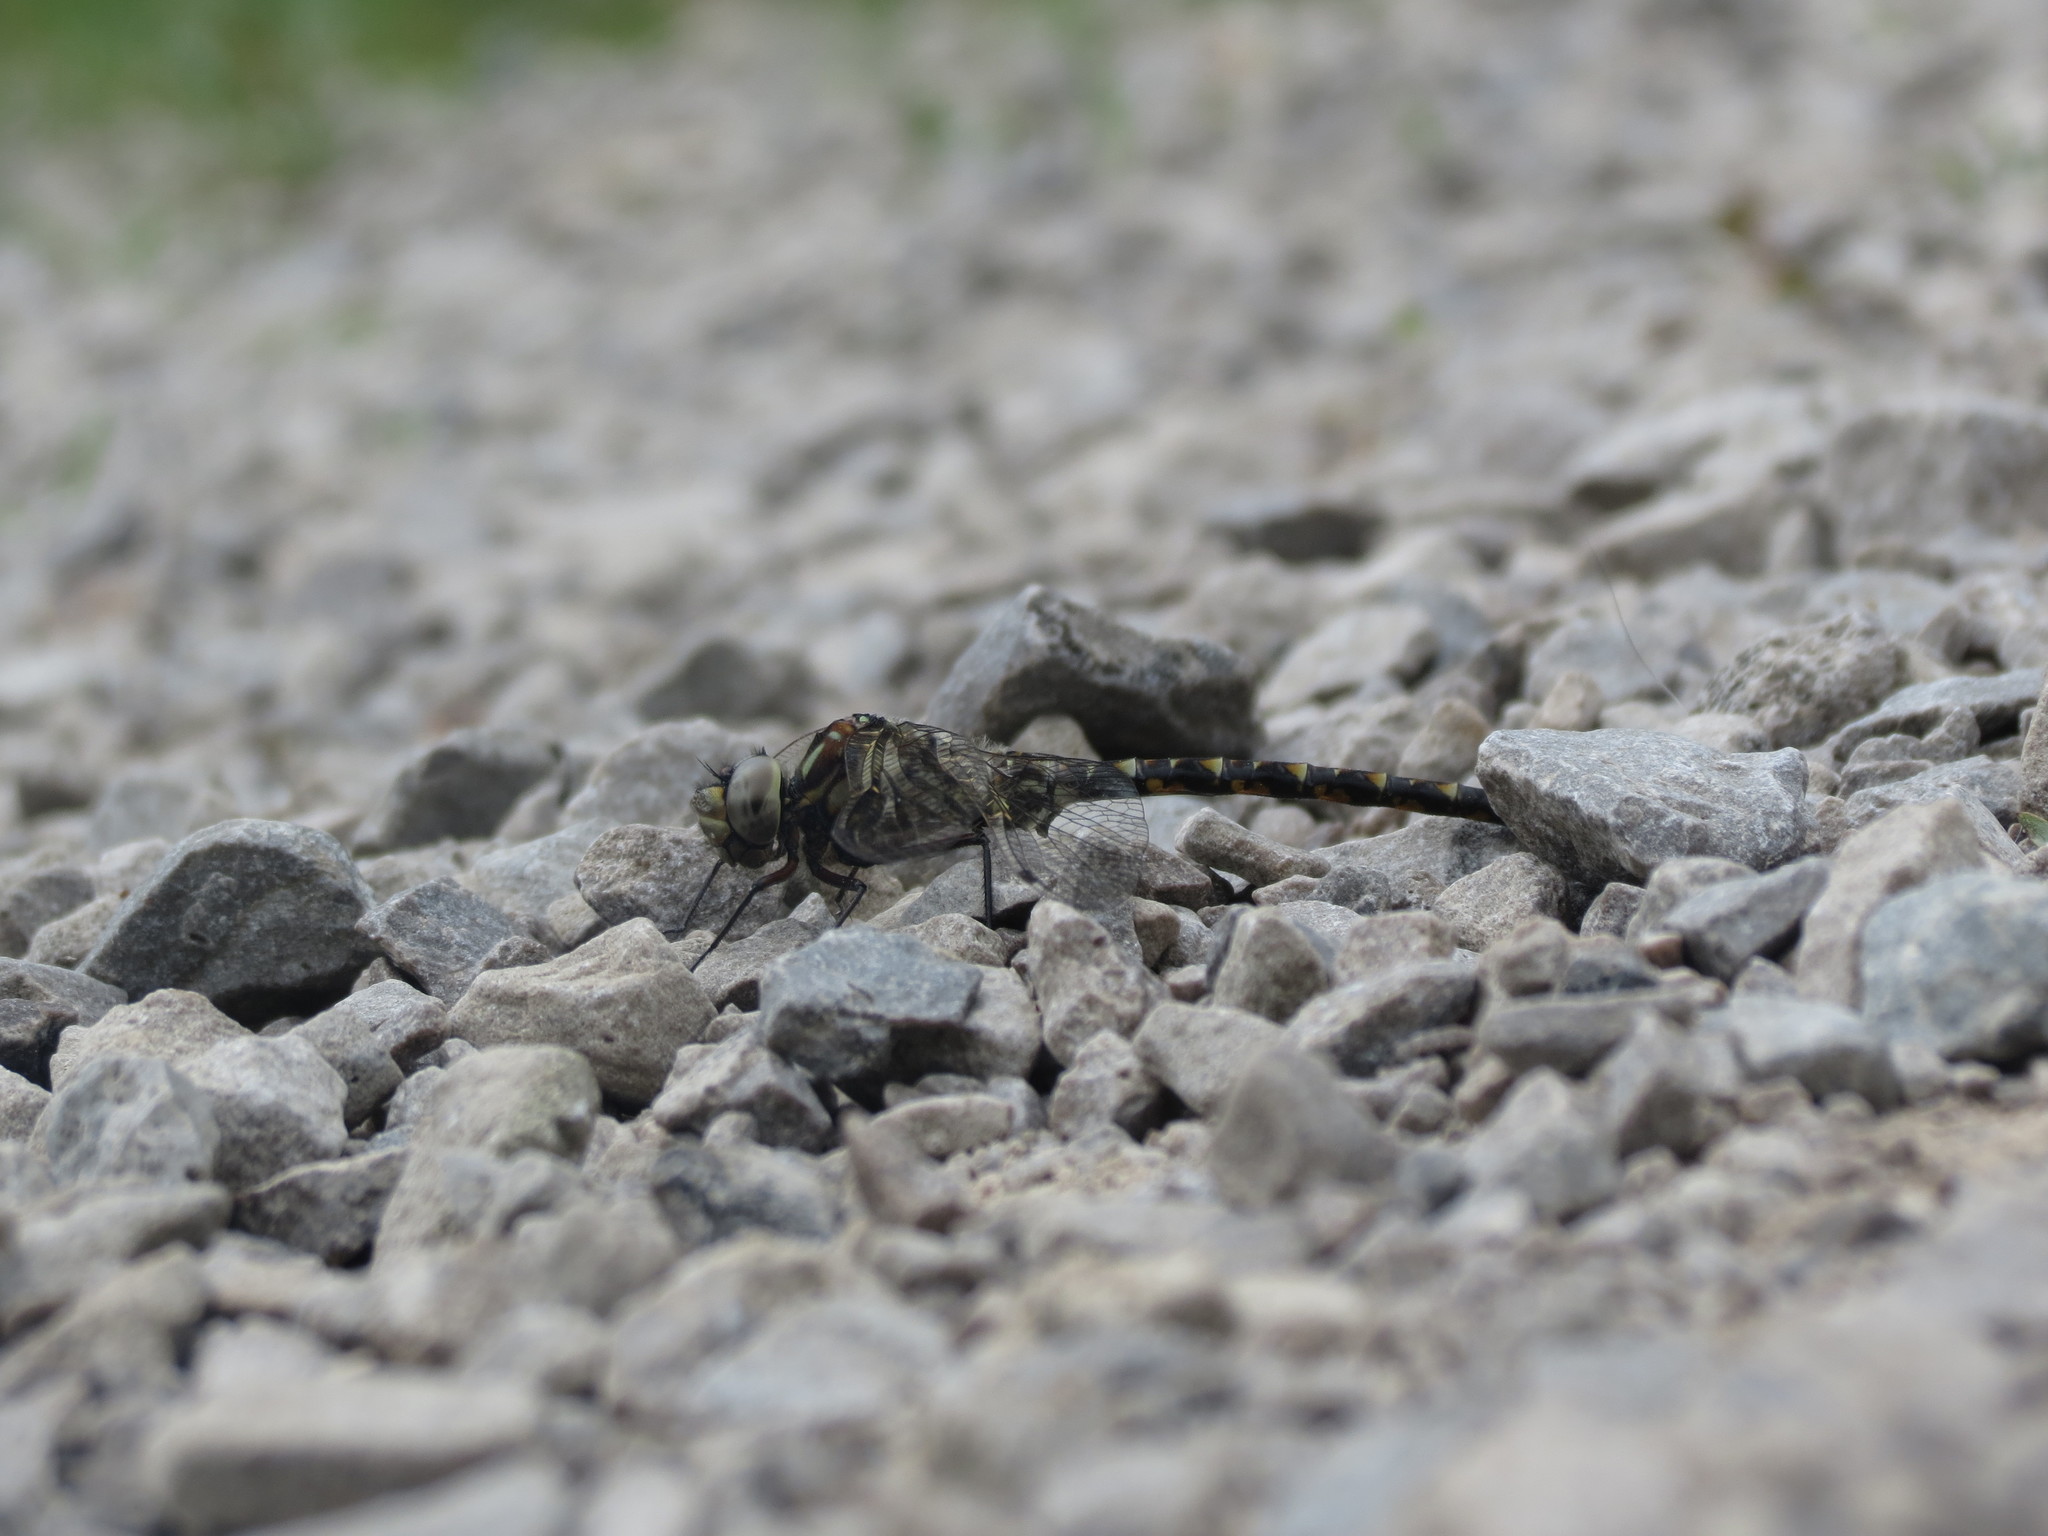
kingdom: Animalia
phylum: Arthropoda
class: Insecta
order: Odonata
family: Aeshnidae
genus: Gomphaeschna
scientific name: Gomphaeschna furcillata
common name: Harlequin darner
